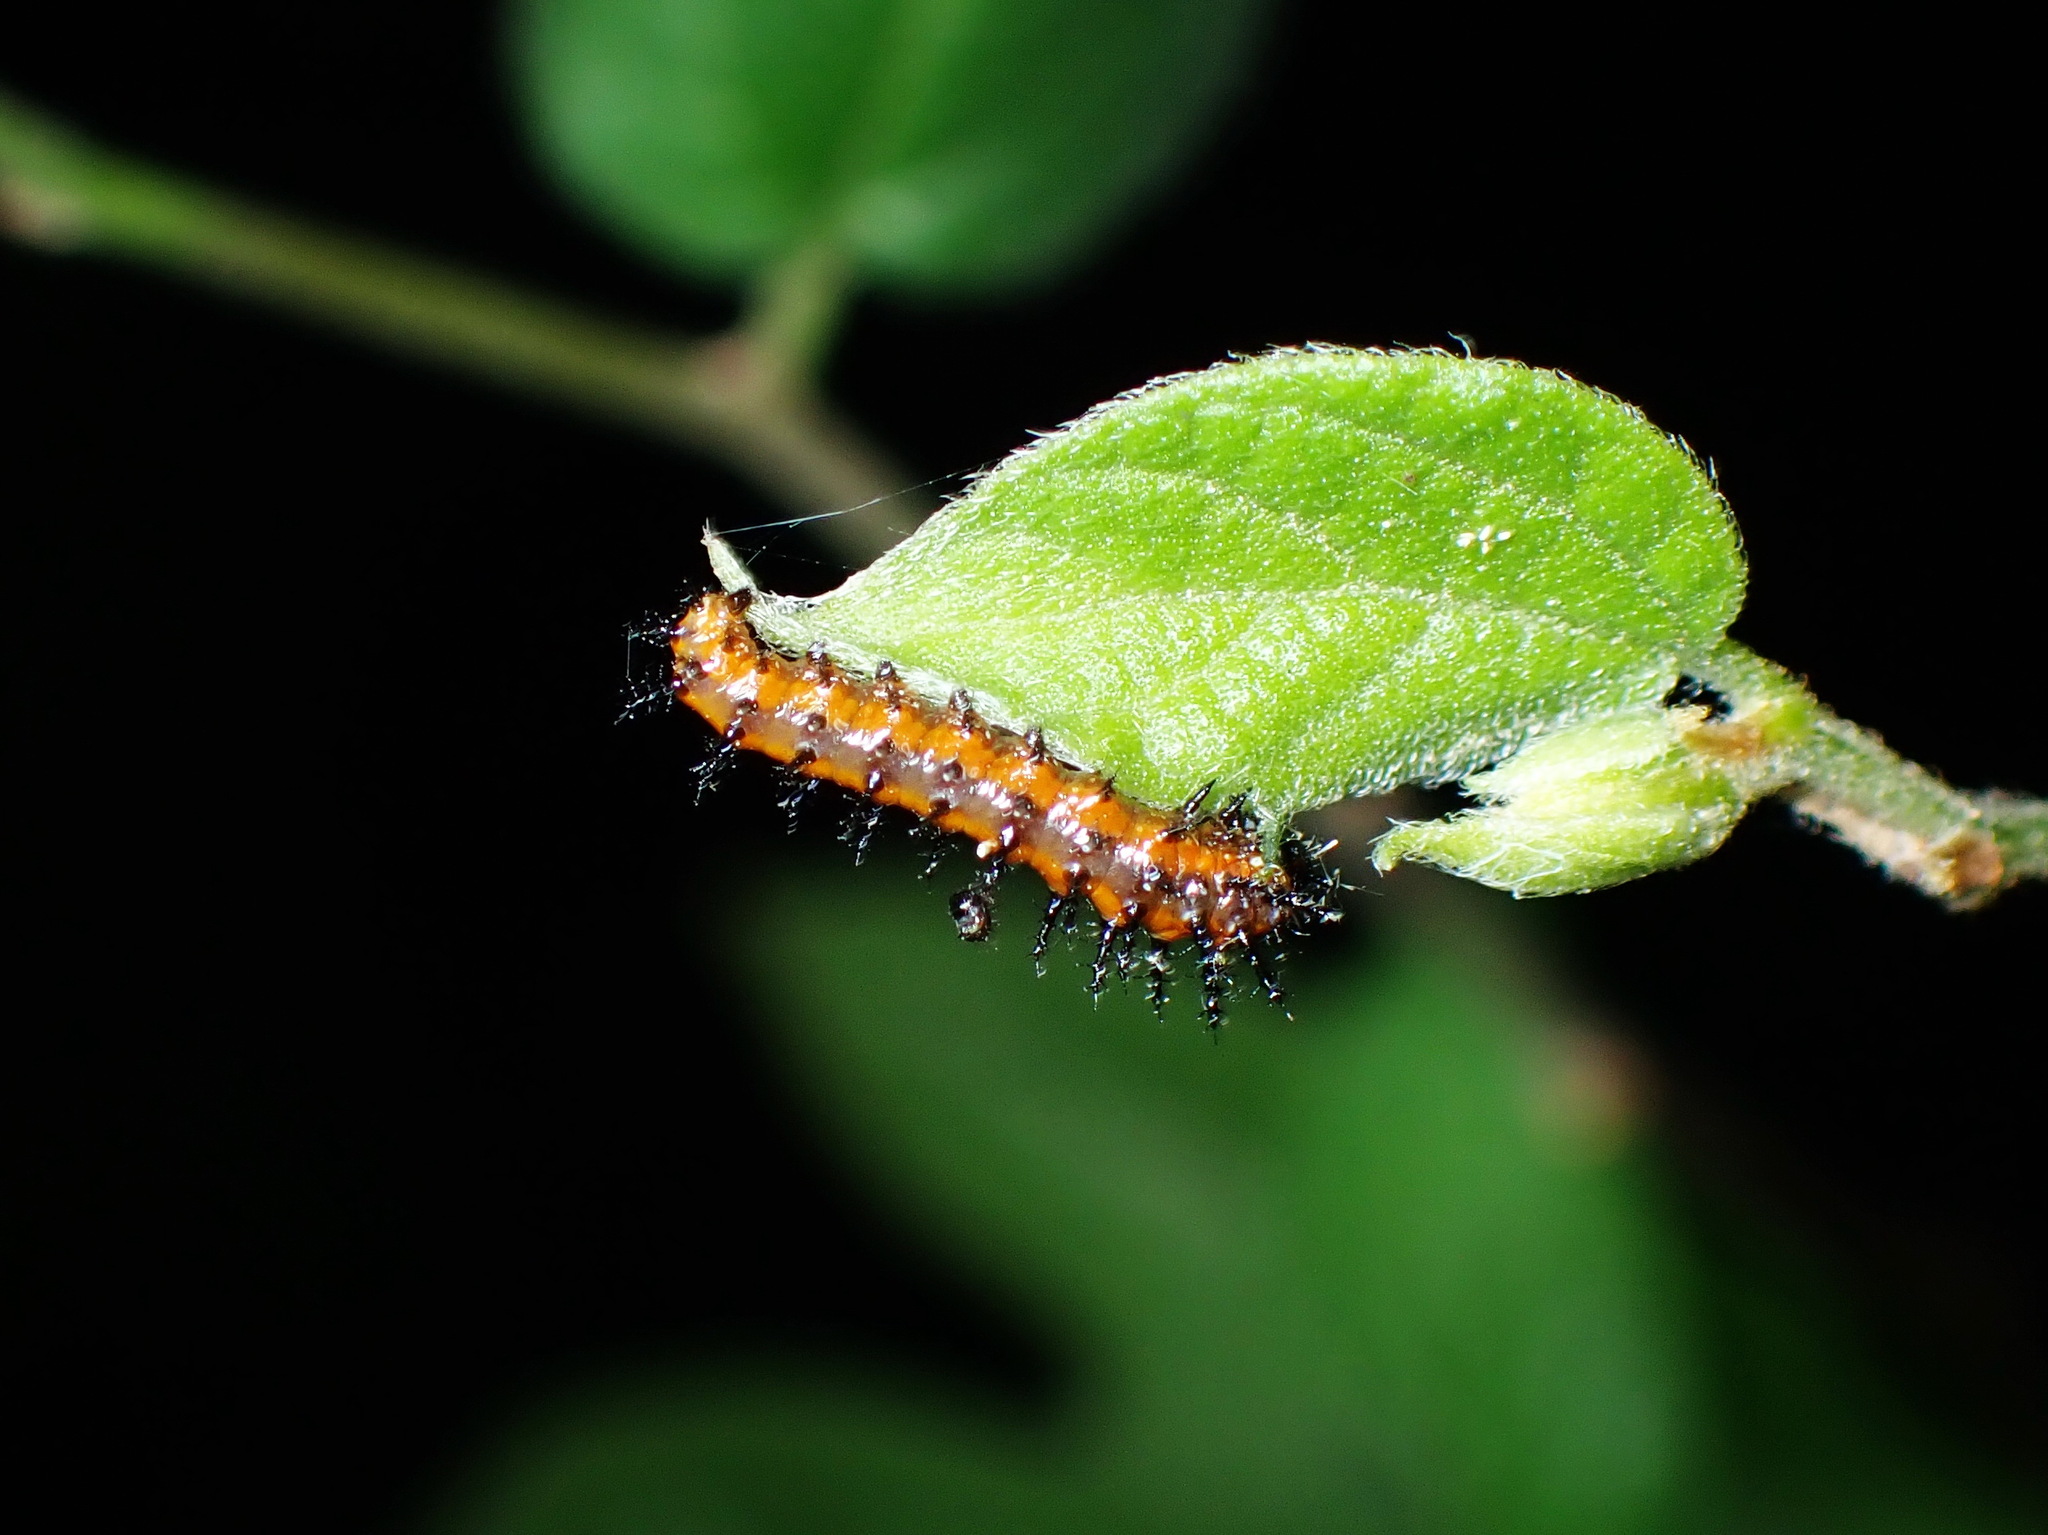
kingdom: Animalia
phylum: Arthropoda
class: Insecta
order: Lepidoptera
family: Nymphalidae
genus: Euptoieta
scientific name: Euptoieta claudia
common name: Variegated fritillary
